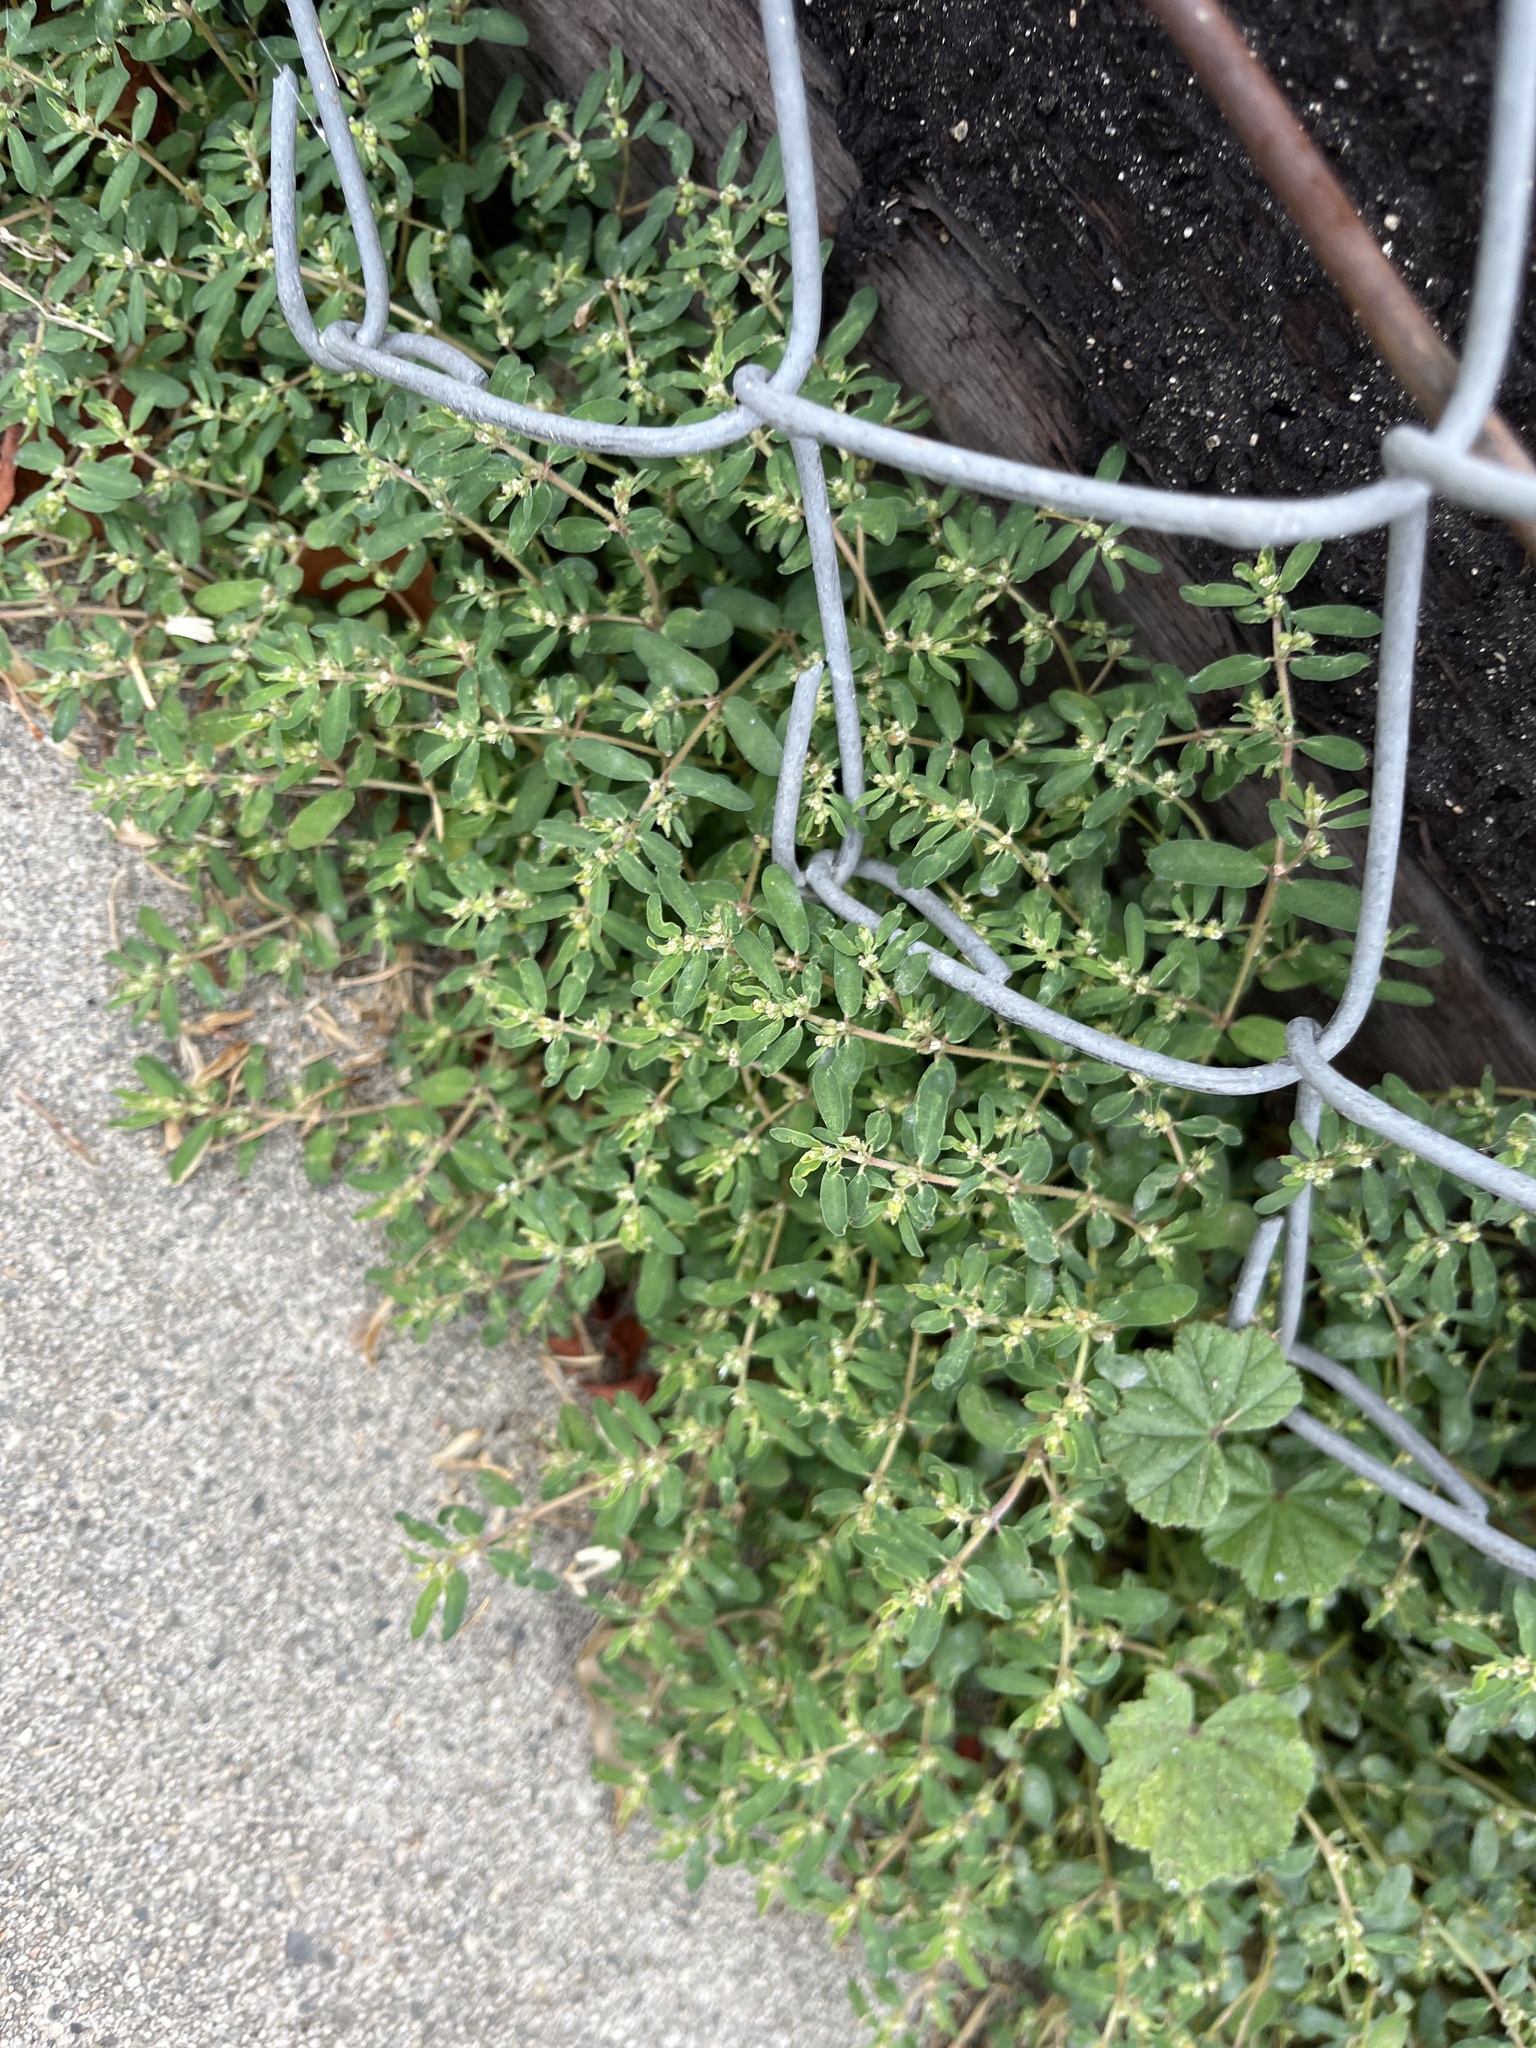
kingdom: Plantae
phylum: Tracheophyta
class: Magnoliopsida
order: Malpighiales
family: Euphorbiaceae
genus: Euphorbia
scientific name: Euphorbia maculata
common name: Spotted spurge
